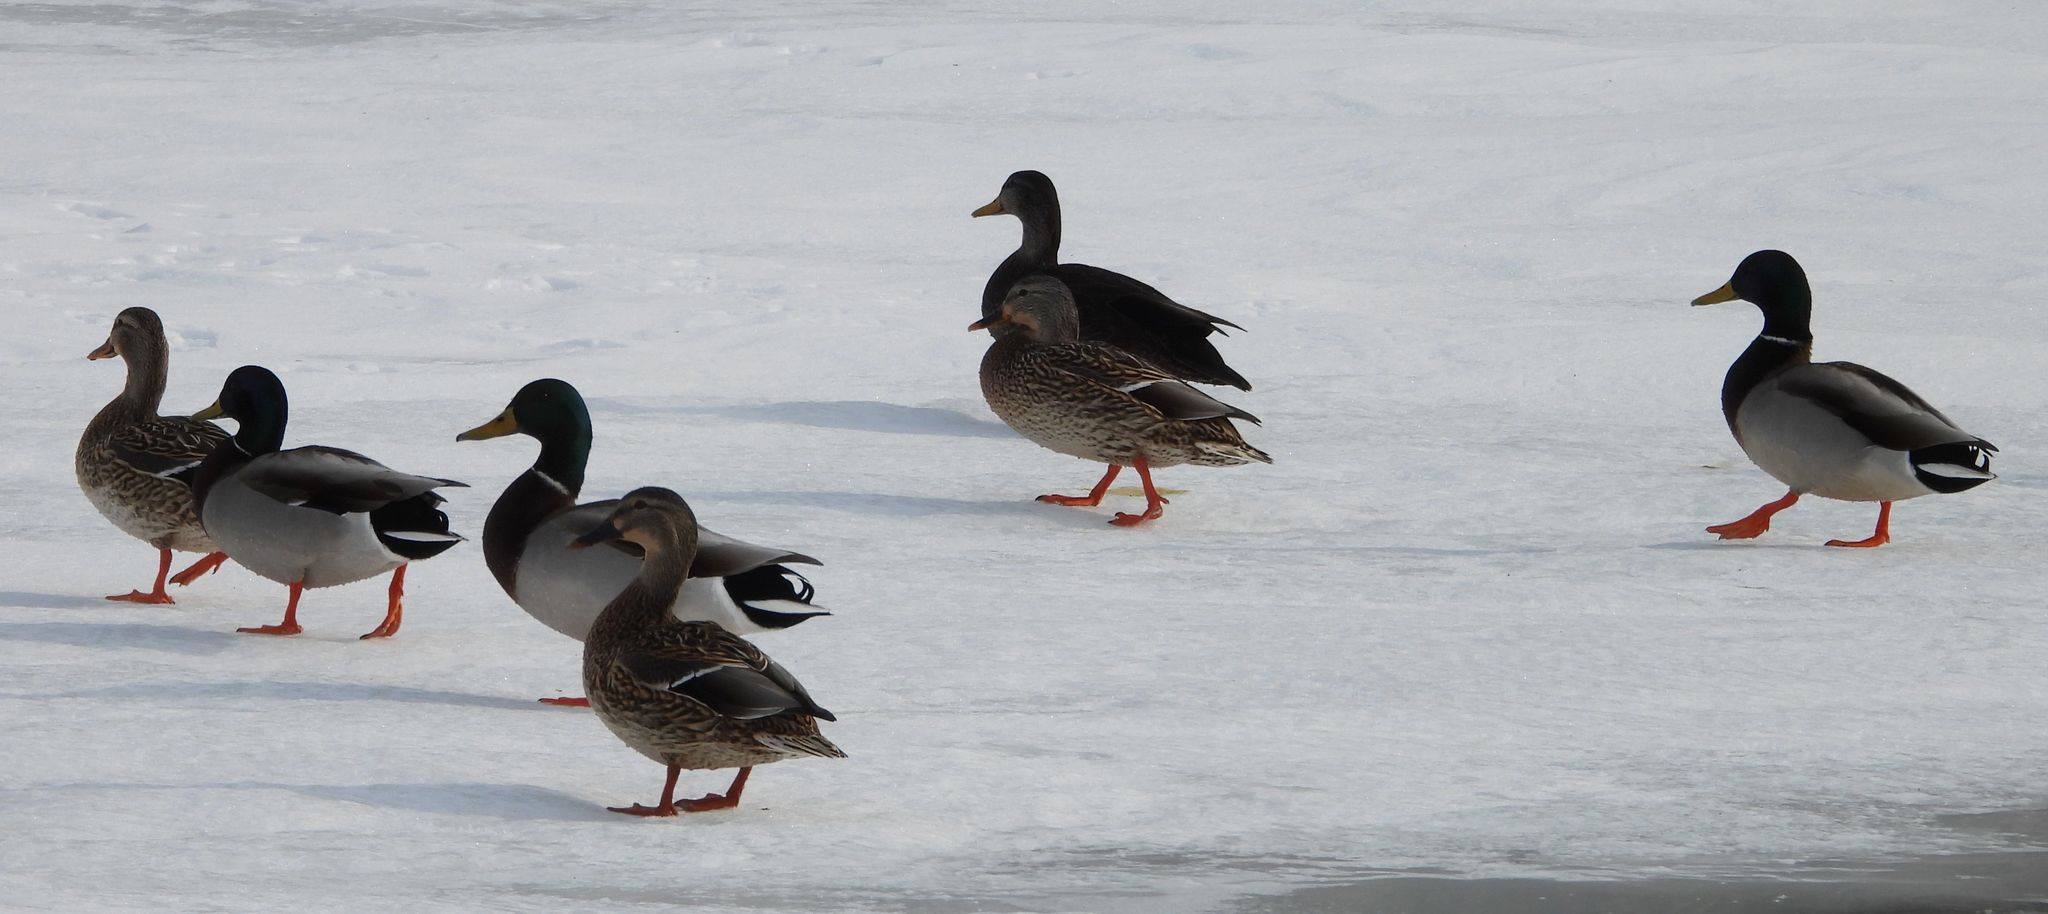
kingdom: Animalia
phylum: Chordata
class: Aves
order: Anseriformes
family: Anatidae
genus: Anas
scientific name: Anas platyrhynchos
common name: Mallard
